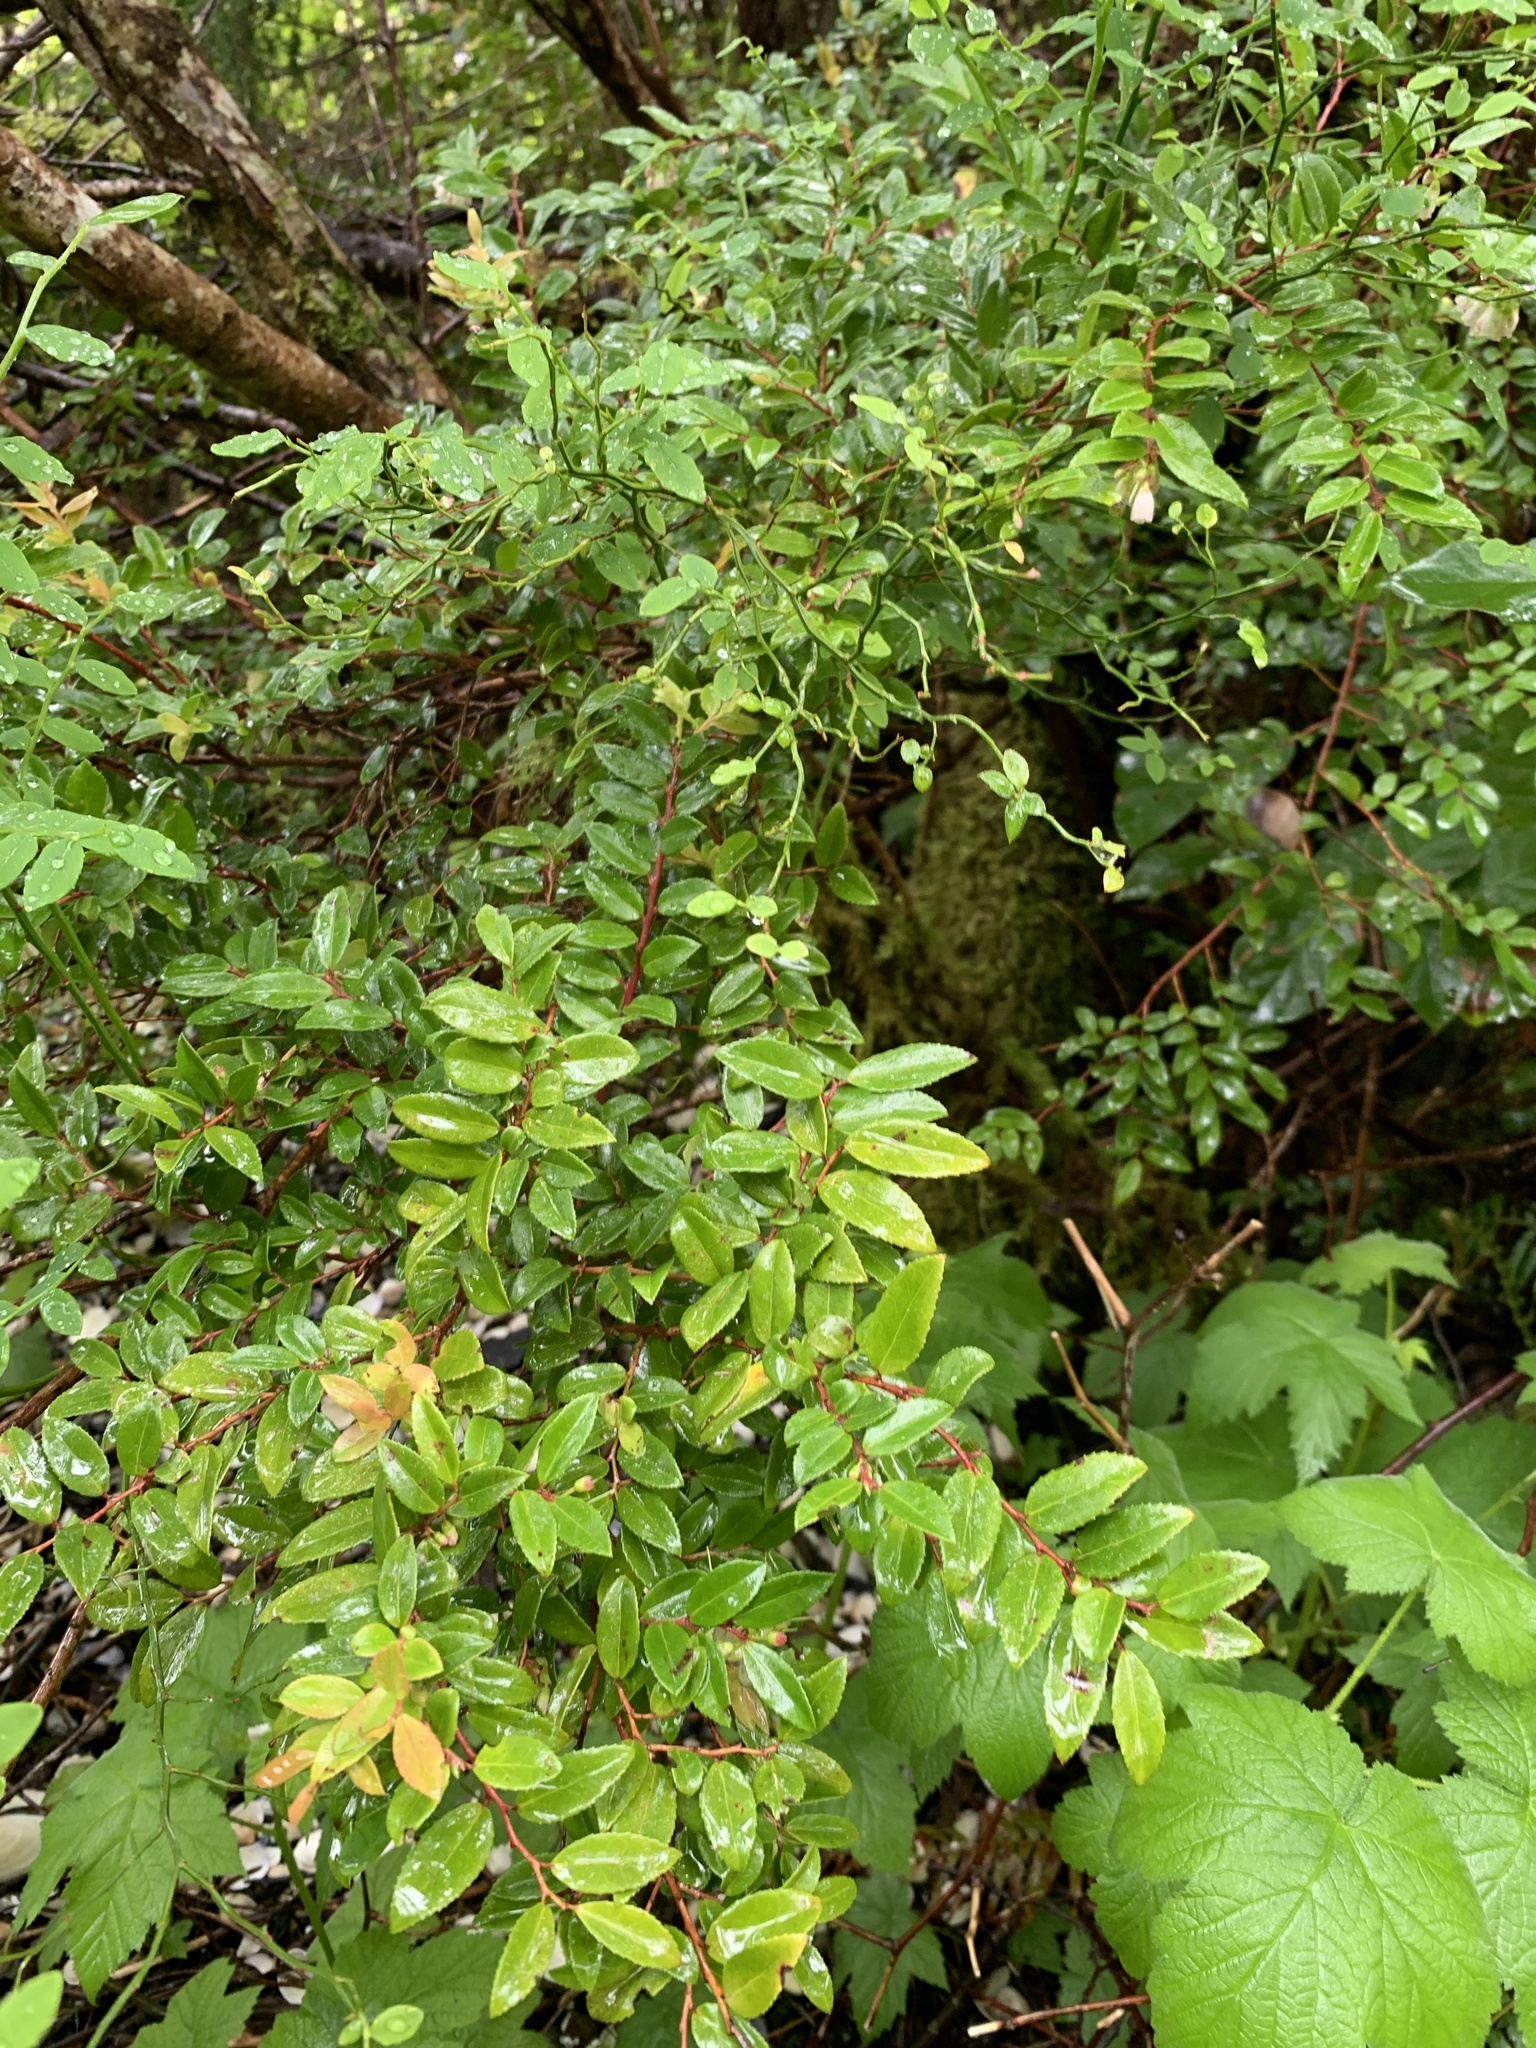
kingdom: Plantae
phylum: Tracheophyta
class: Magnoliopsida
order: Ericales
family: Ericaceae
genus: Vaccinium
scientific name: Vaccinium ovatum
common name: California-huckleberry
